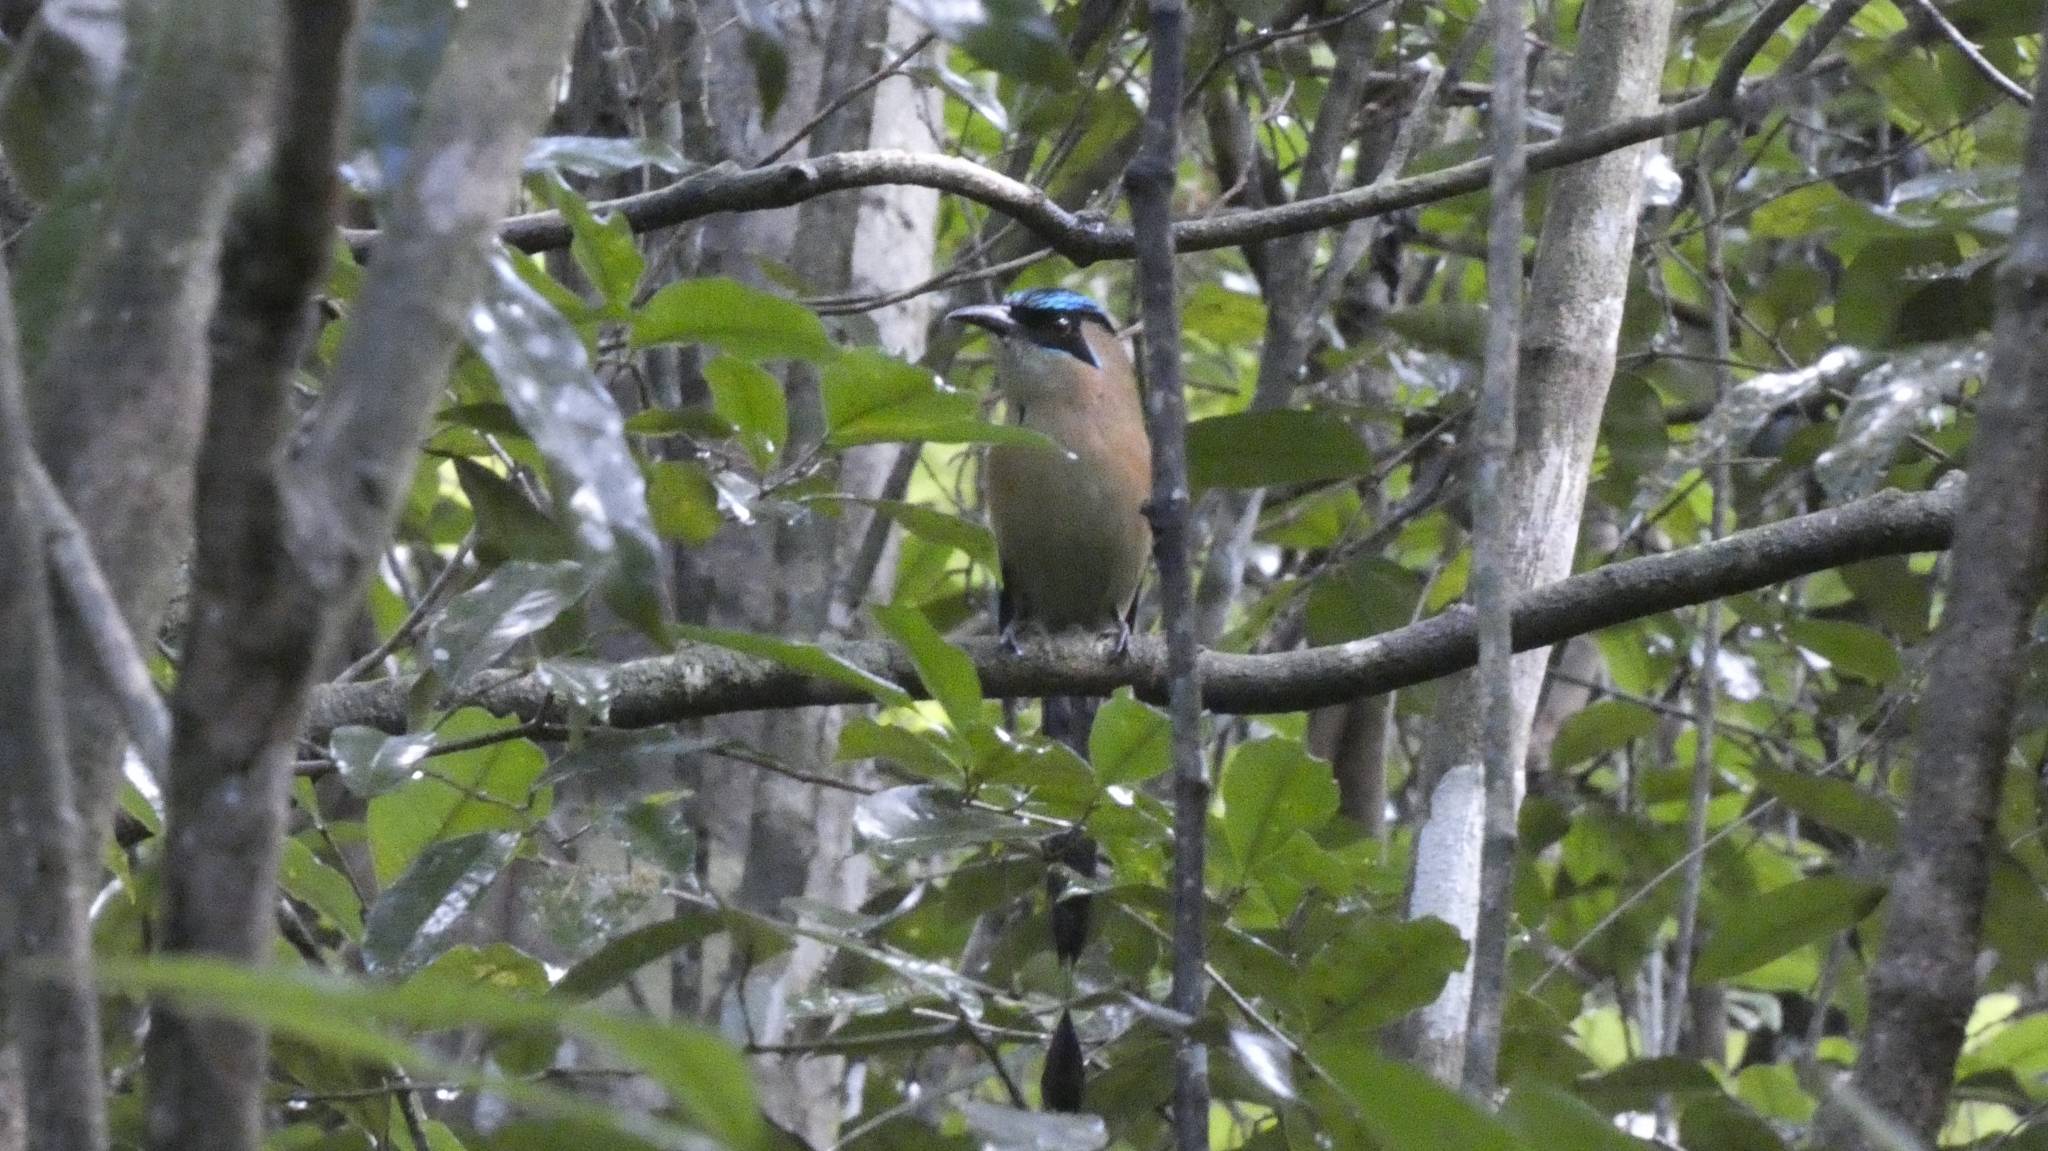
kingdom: Animalia
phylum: Chordata
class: Aves
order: Coraciiformes
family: Momotidae
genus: Momotus
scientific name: Momotus lessonii
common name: Lesson's motmot
